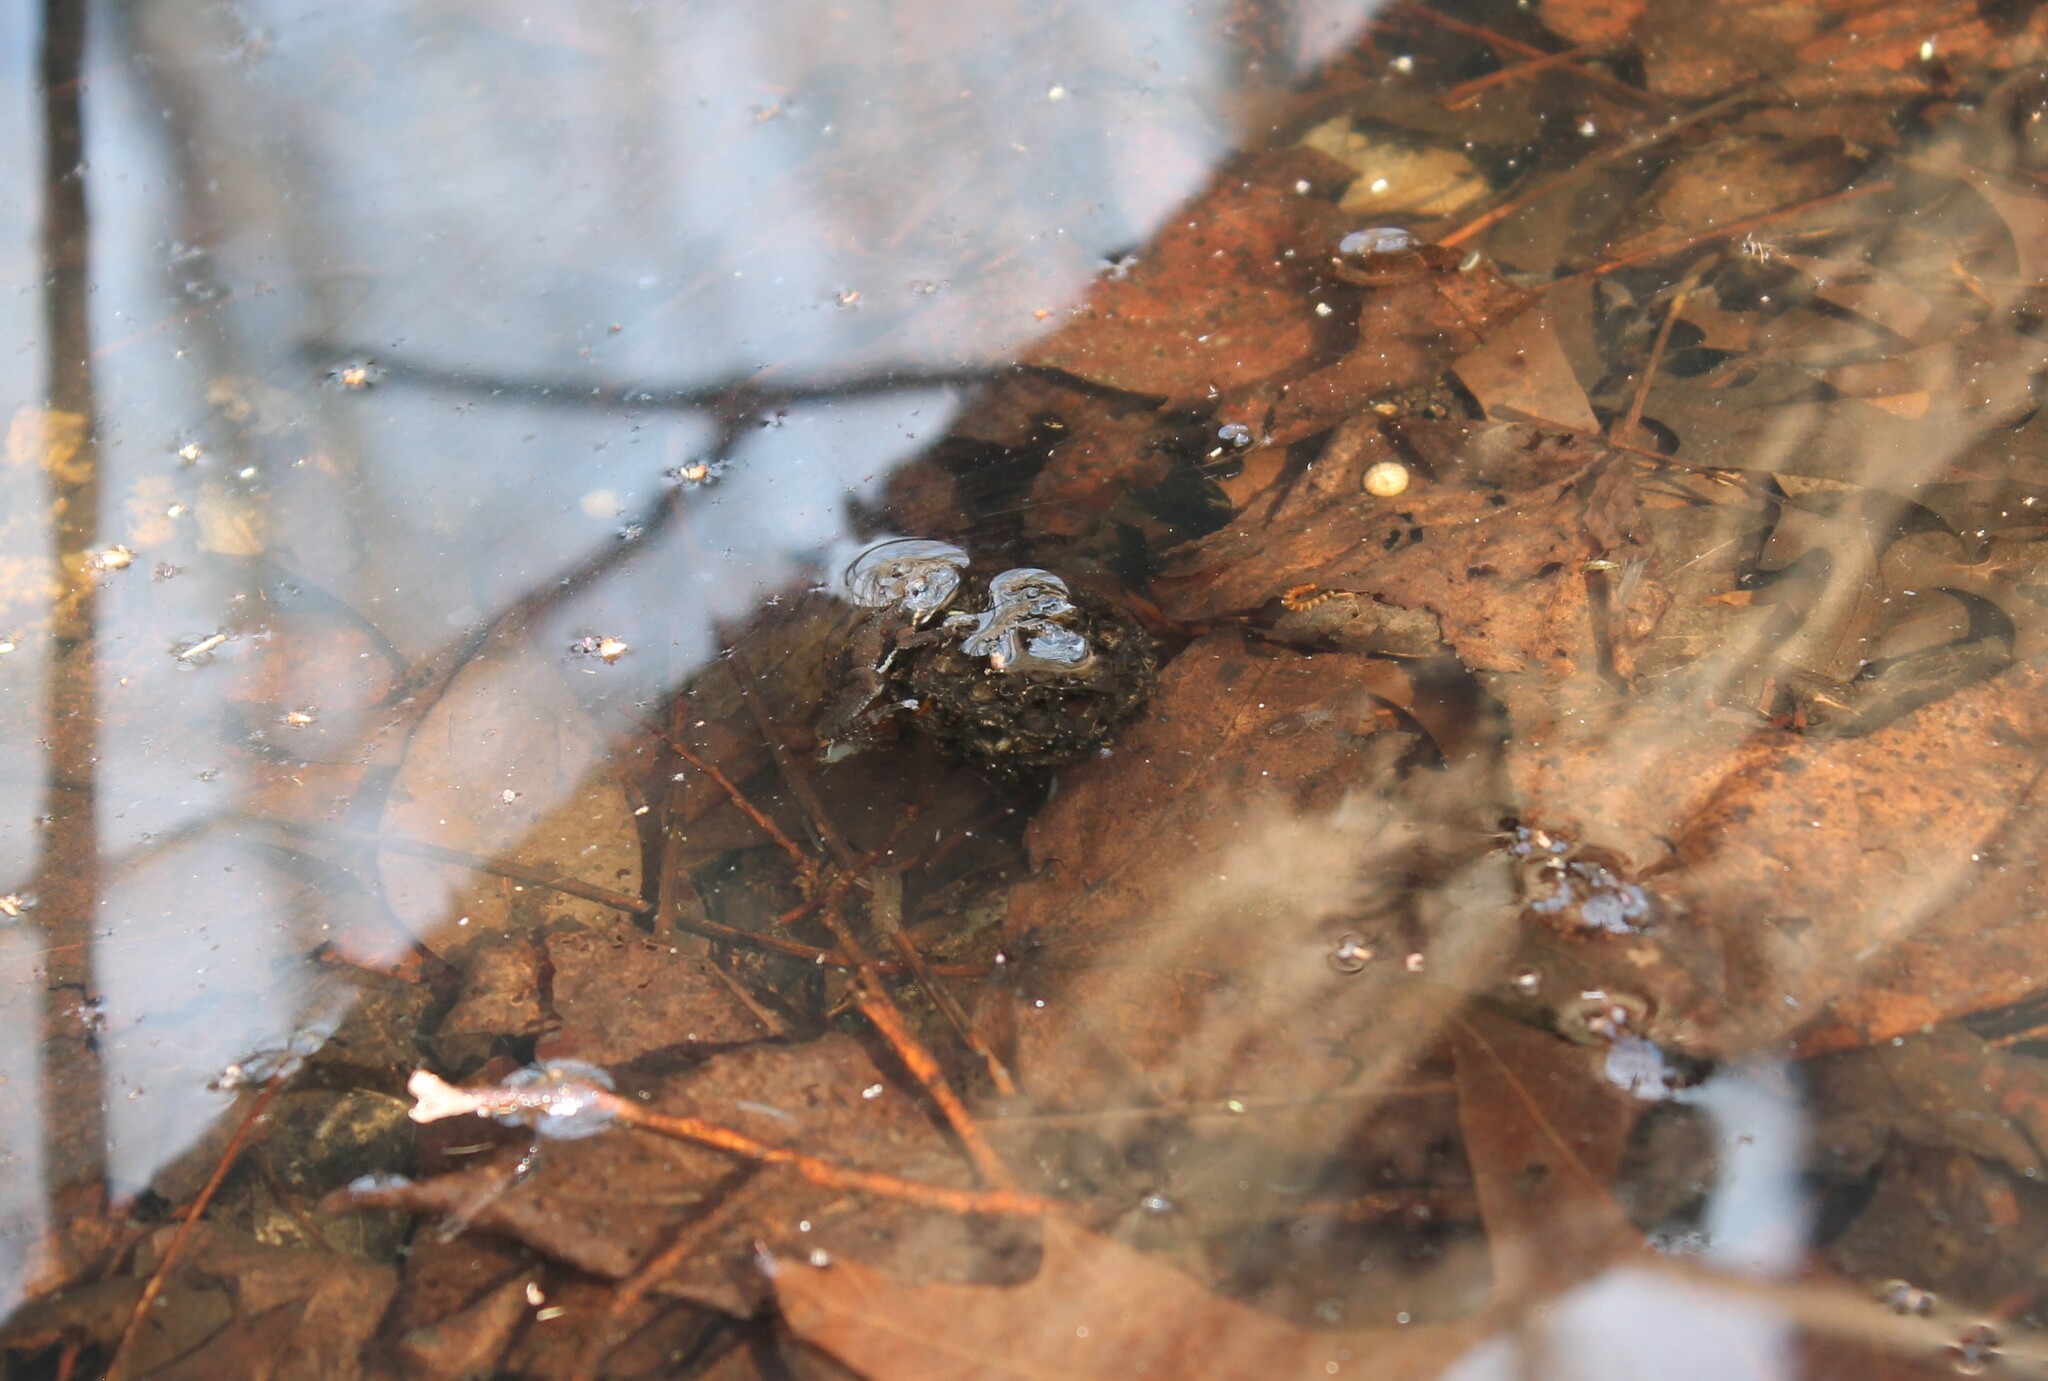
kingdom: Animalia
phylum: Chordata
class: Amphibia
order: Anura
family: Hylidae
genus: Acris
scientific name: Acris crepitans
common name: Northern cricket frog
